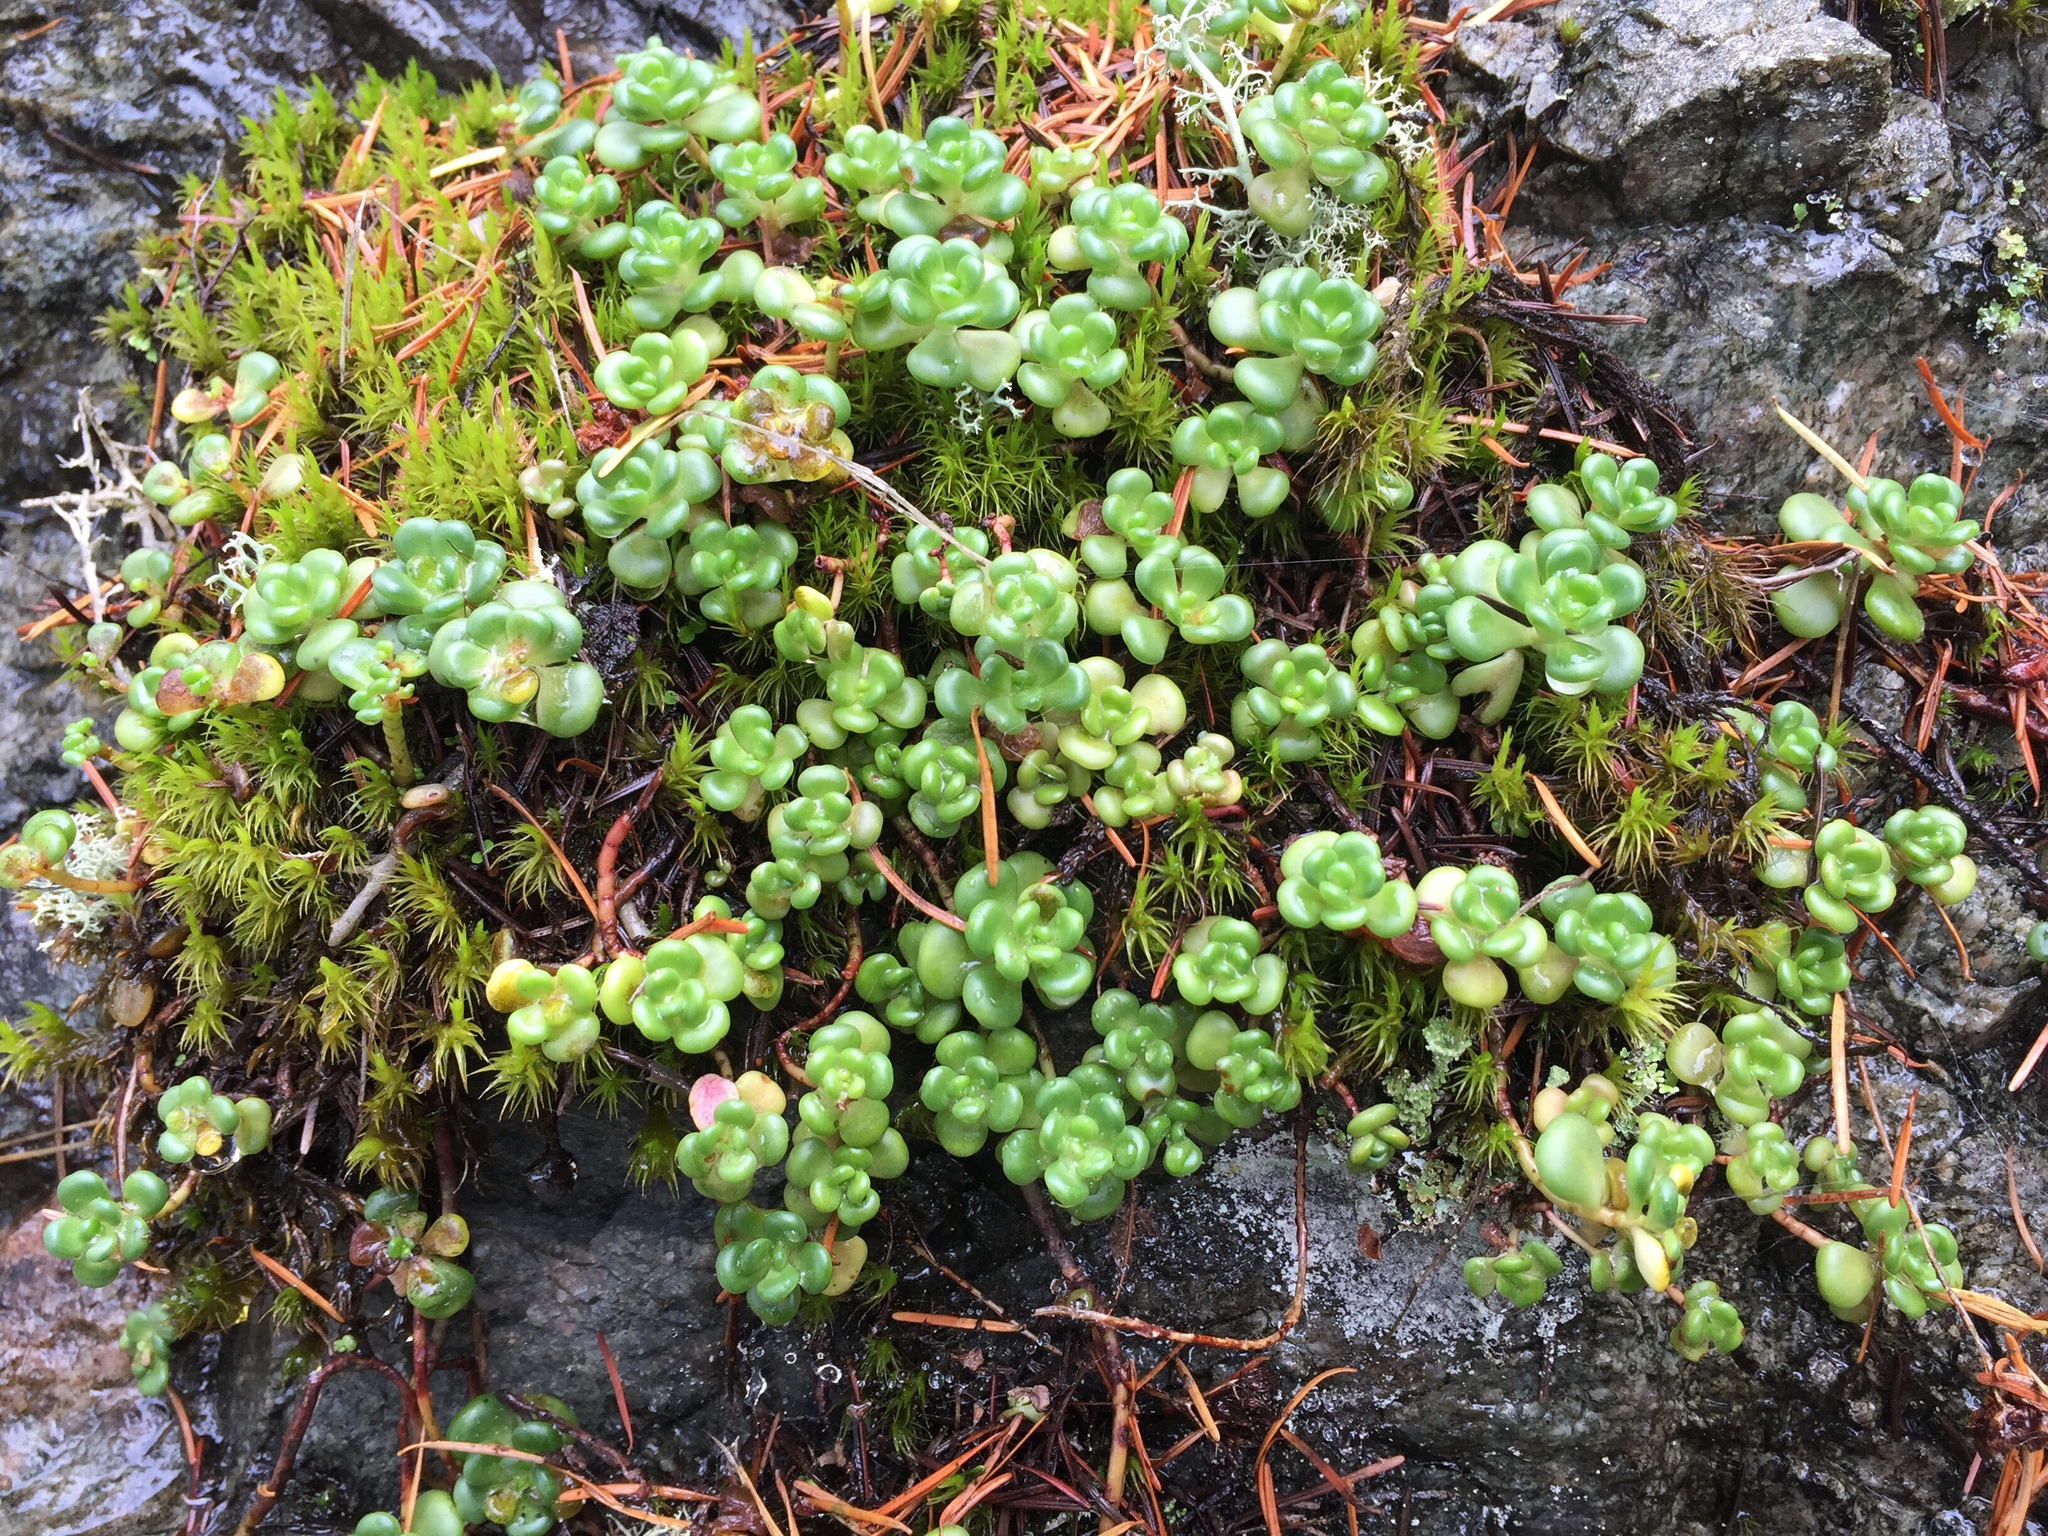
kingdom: Plantae
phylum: Tracheophyta
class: Magnoliopsida
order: Saxifragales
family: Crassulaceae
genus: Sedum
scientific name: Sedum oreganum
